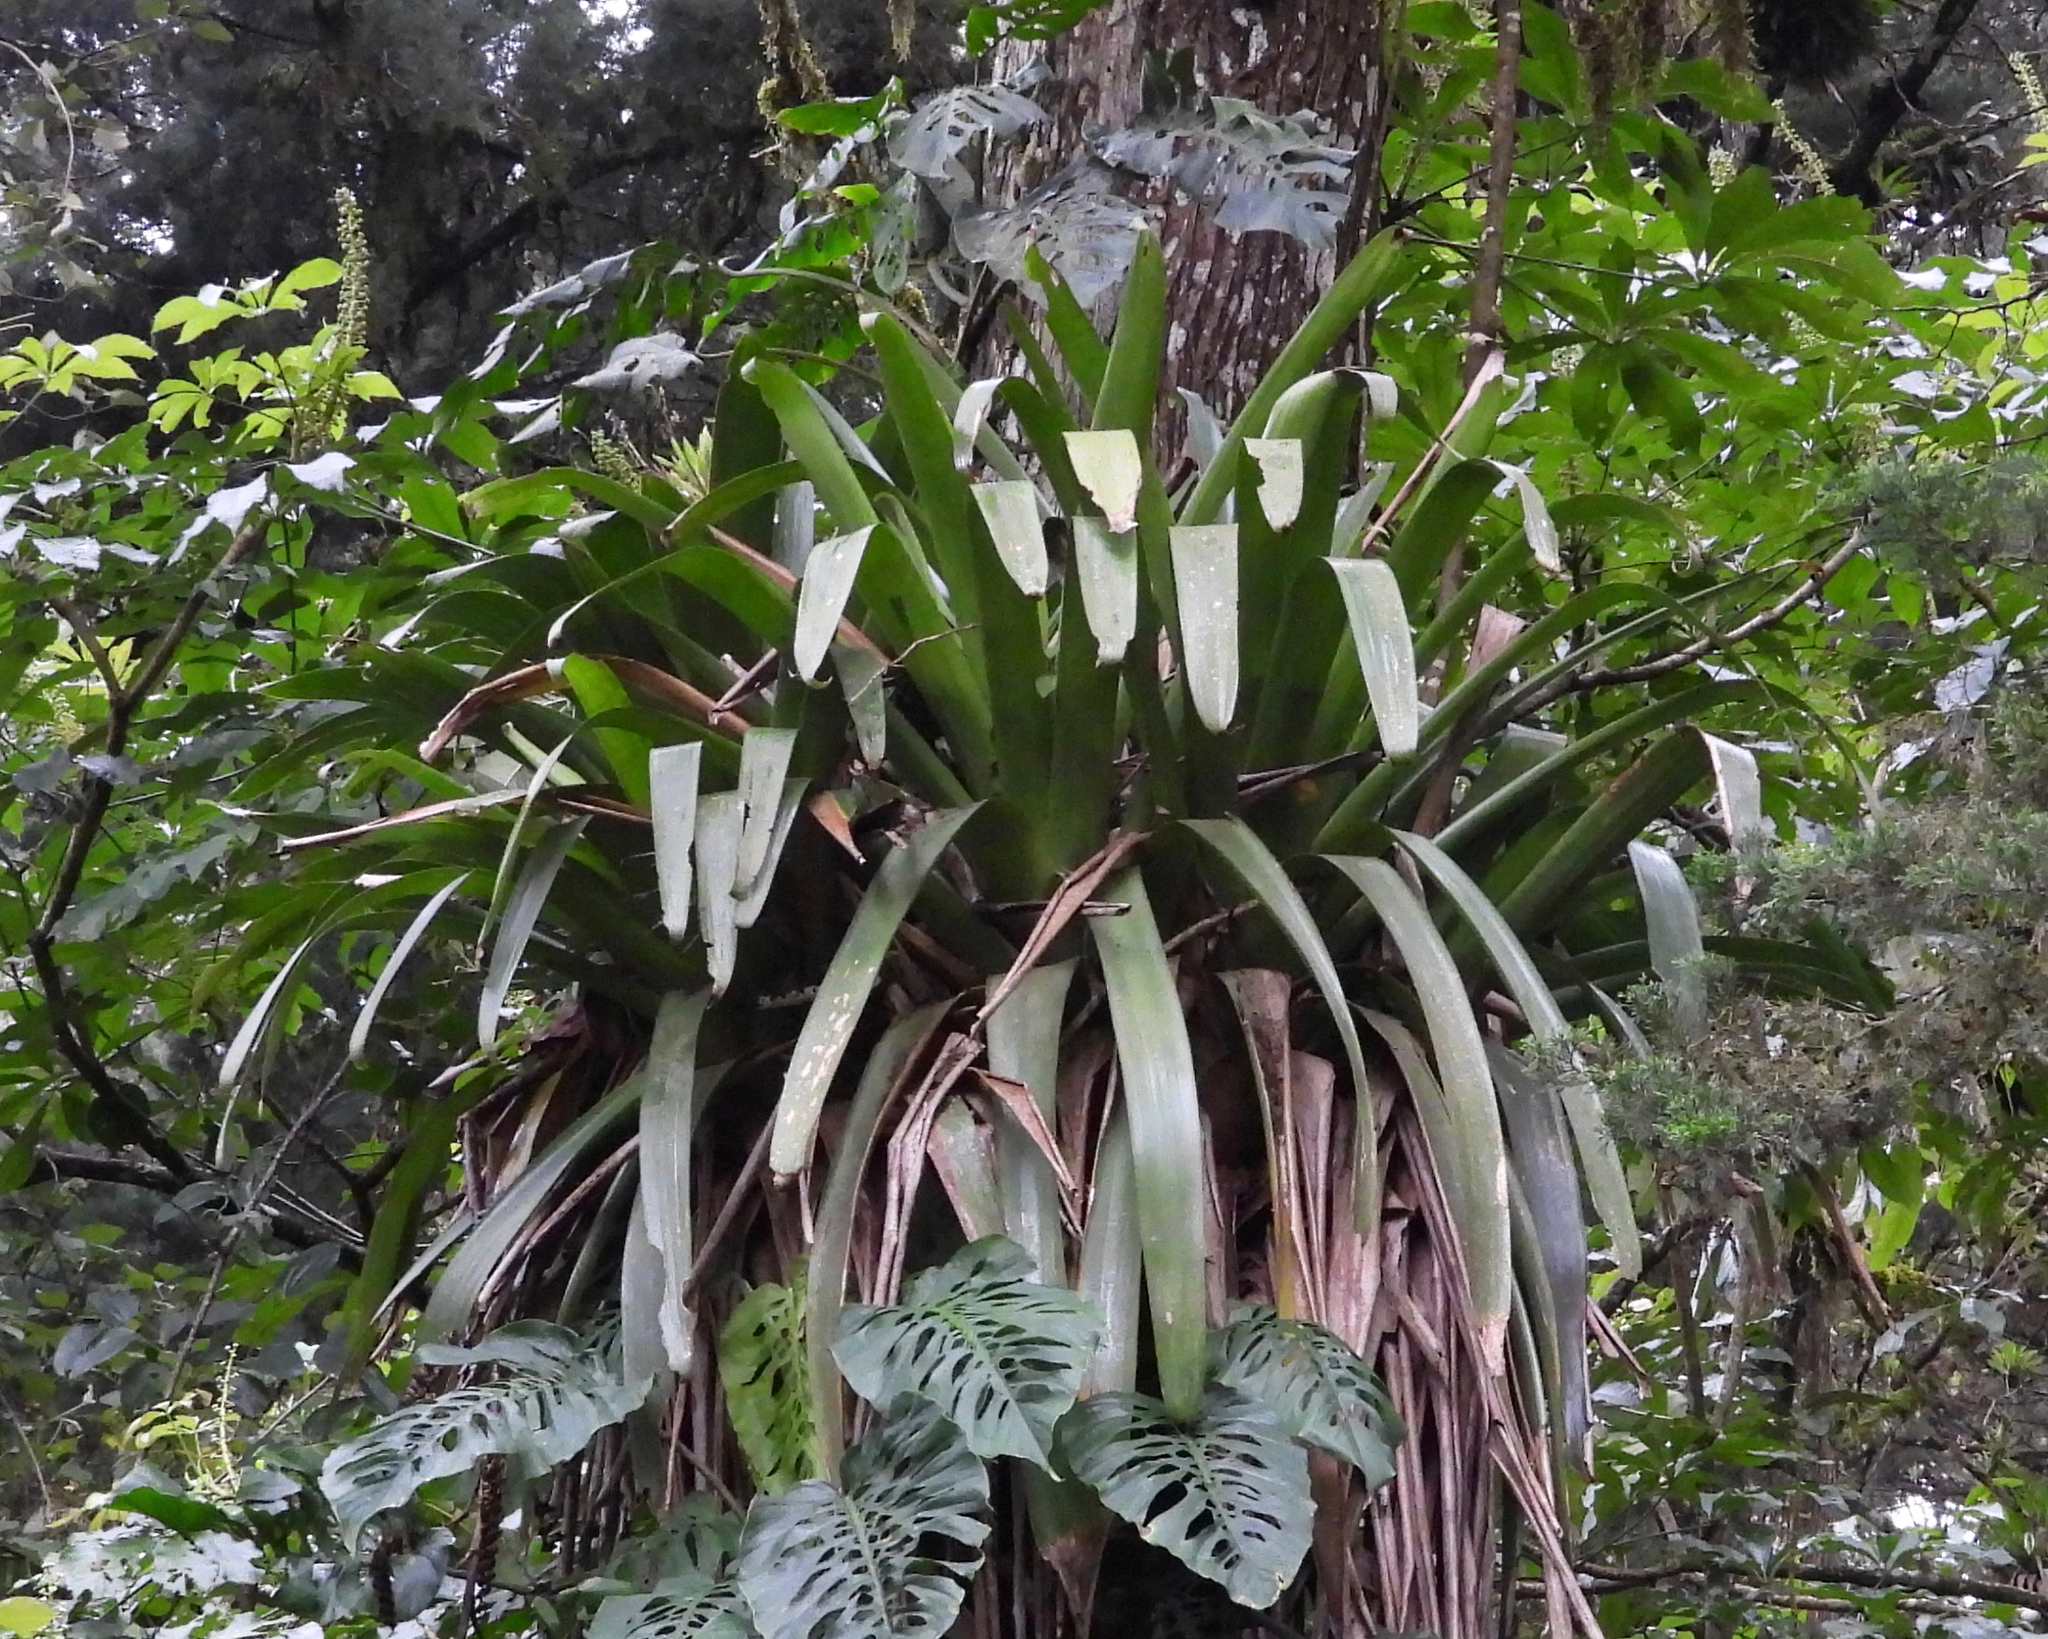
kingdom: Plantae
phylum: Tracheophyta
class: Liliopsida
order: Poales
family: Bromeliaceae
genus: Werauhia
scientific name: Werauhia werckleana
